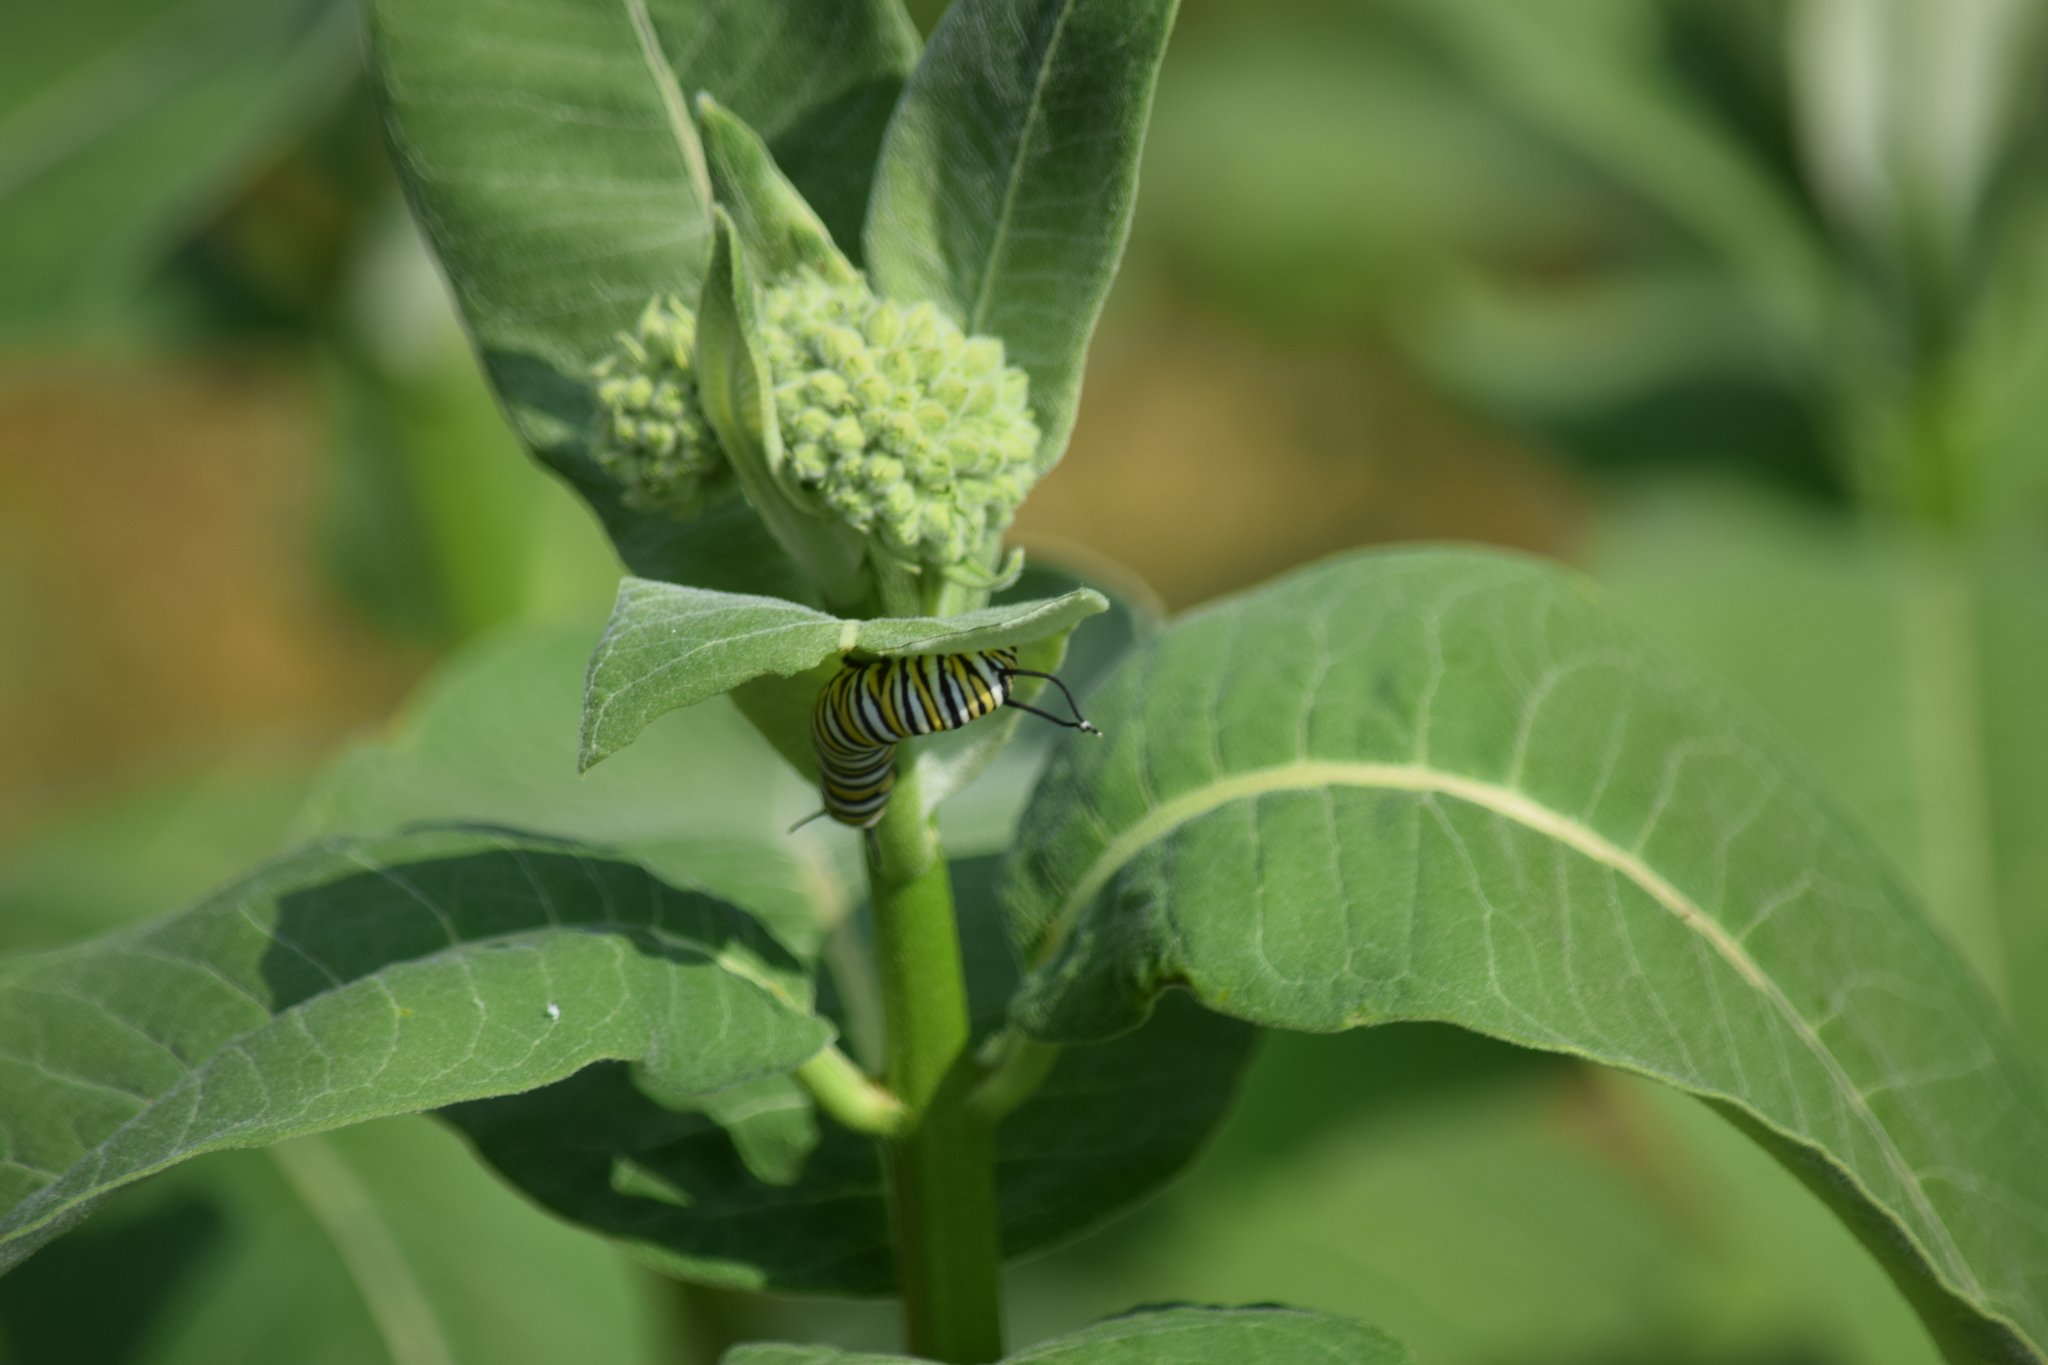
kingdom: Animalia
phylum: Arthropoda
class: Insecta
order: Lepidoptera
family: Nymphalidae
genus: Danaus
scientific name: Danaus plexippus
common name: Monarch
